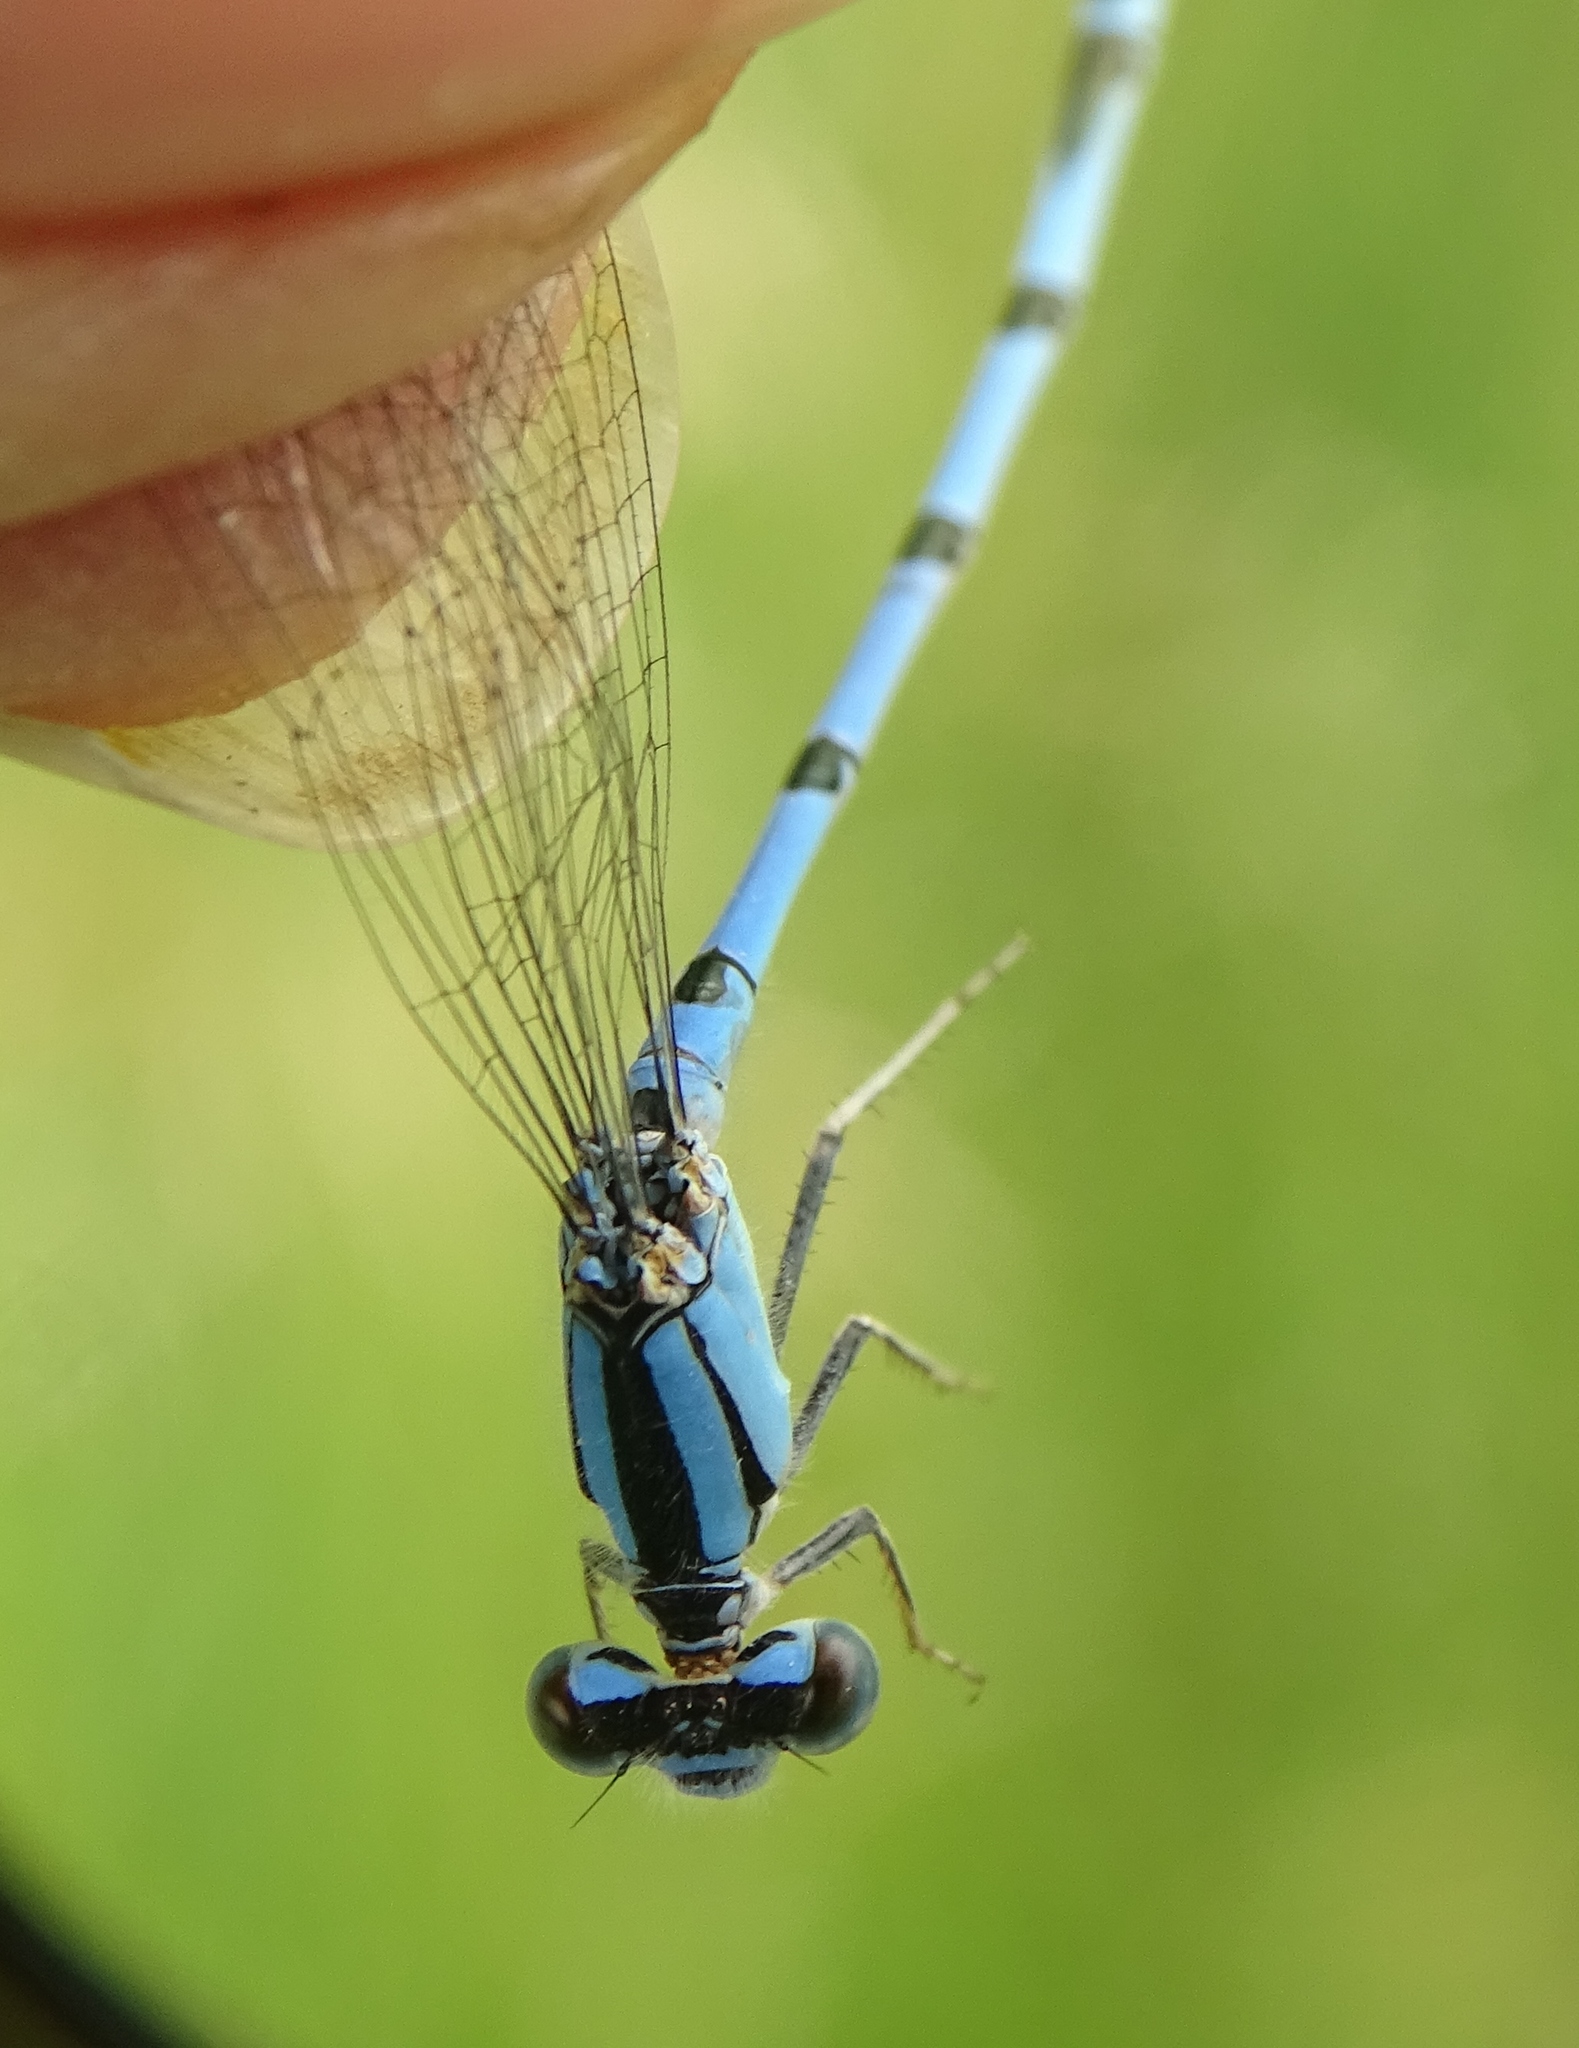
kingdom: Animalia
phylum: Arthropoda
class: Insecta
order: Odonata
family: Coenagrionidae
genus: Enallagma
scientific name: Enallagma civile
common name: Damselfly
